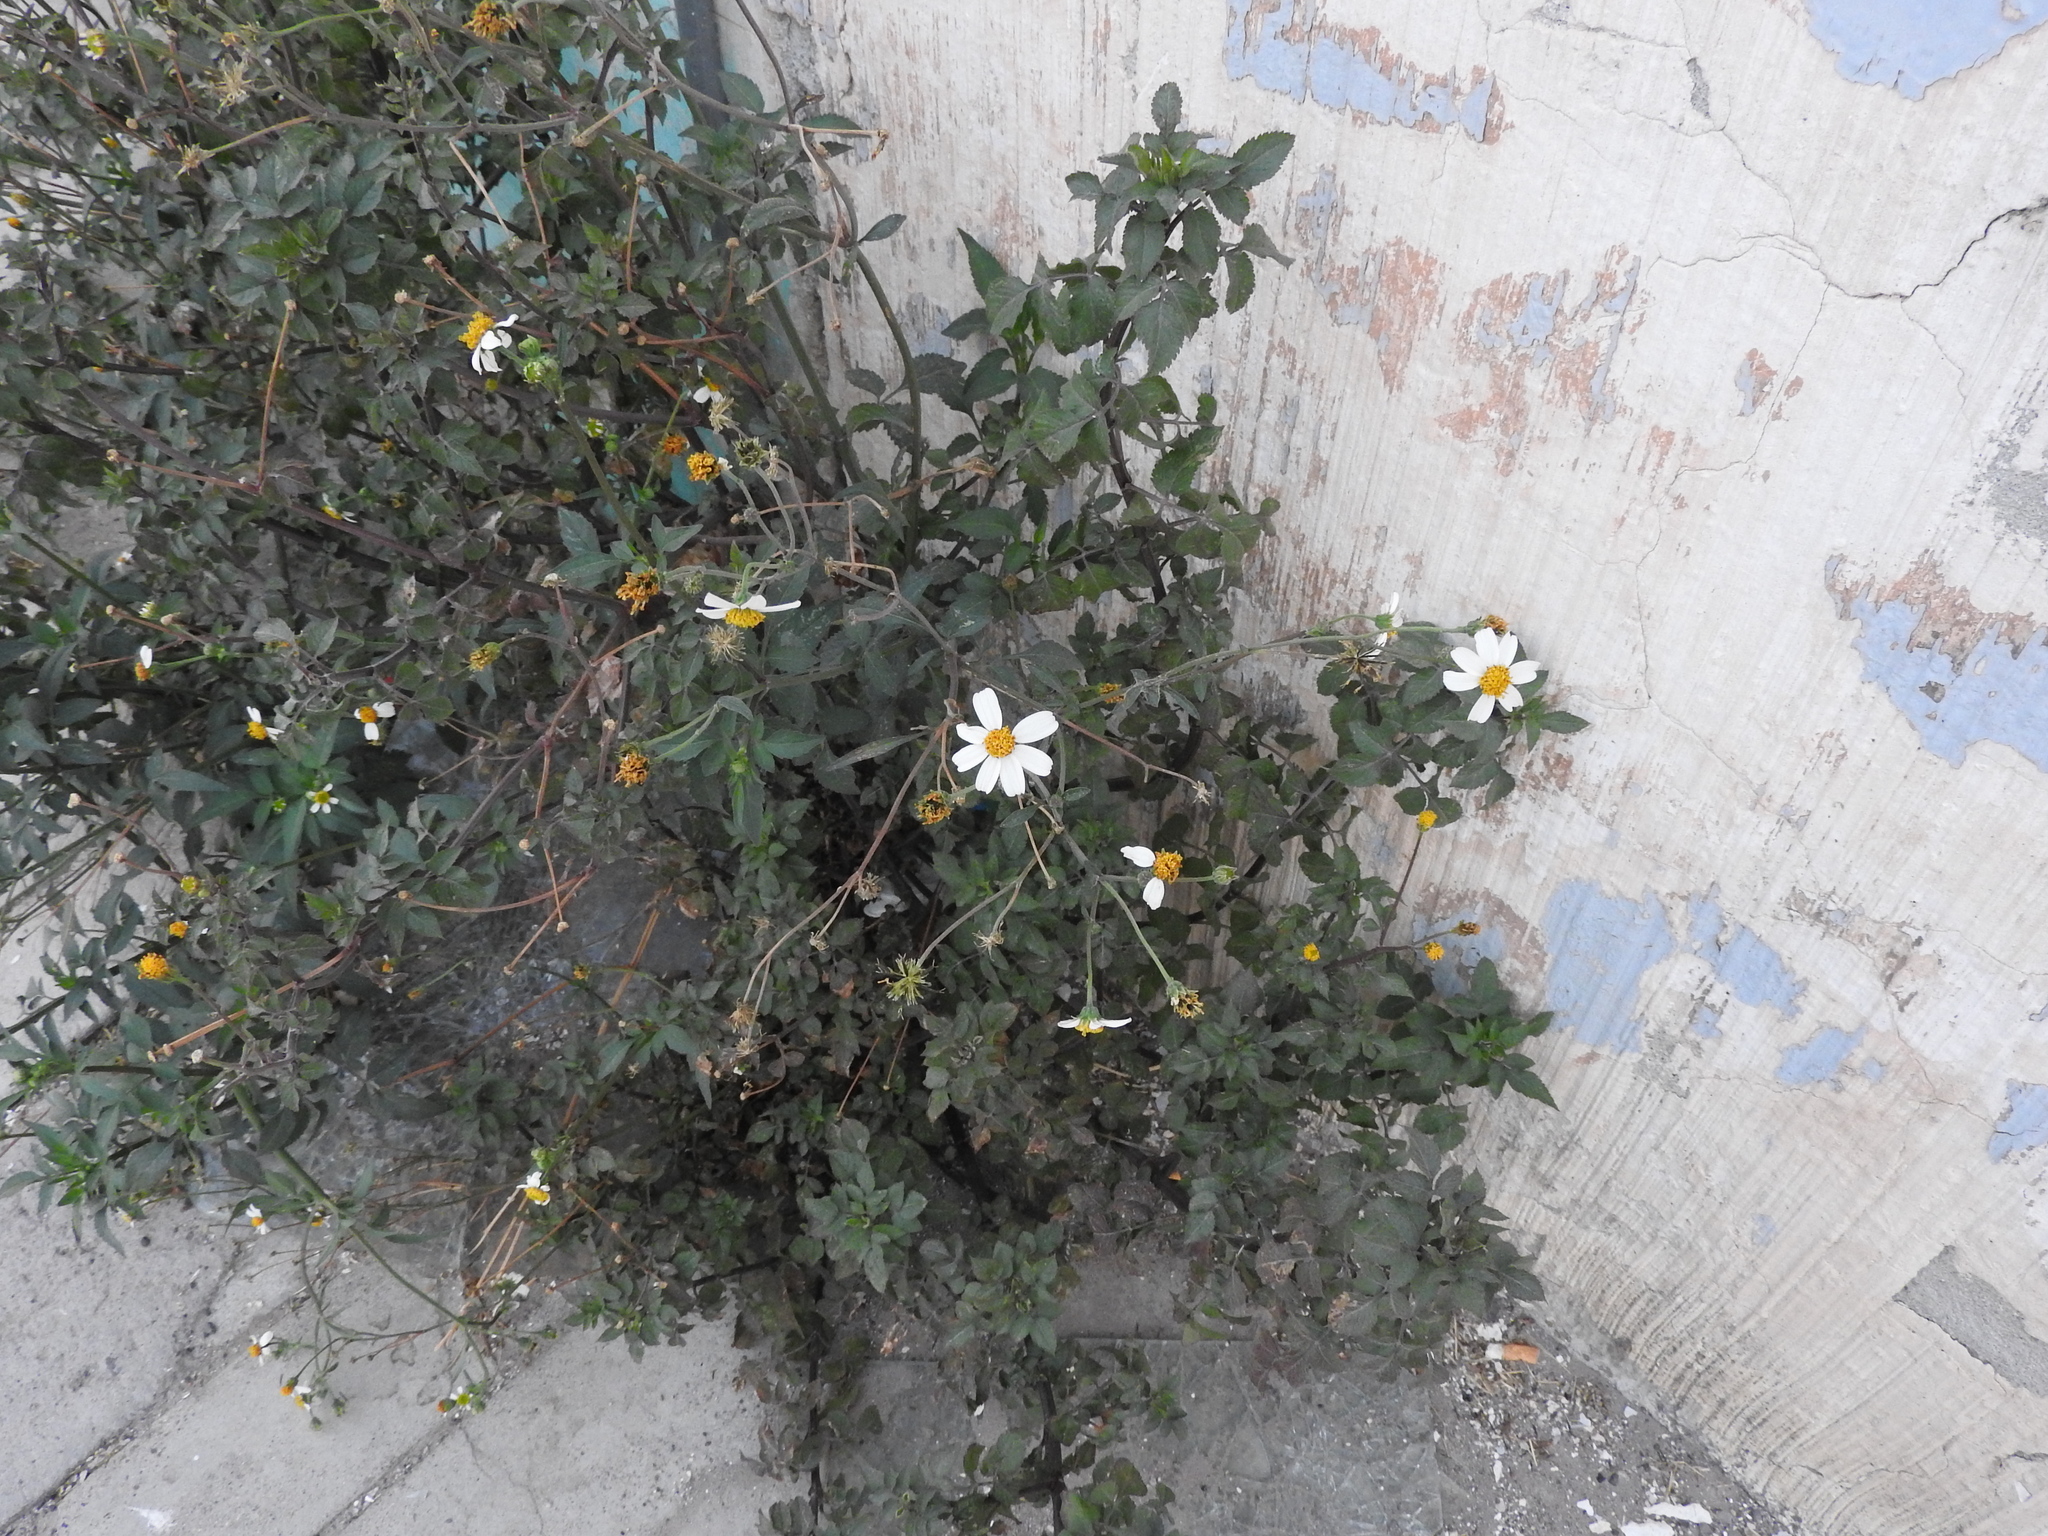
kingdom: Plantae
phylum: Tracheophyta
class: Magnoliopsida
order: Asterales
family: Asteraceae
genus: Bidens
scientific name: Bidens odorata
